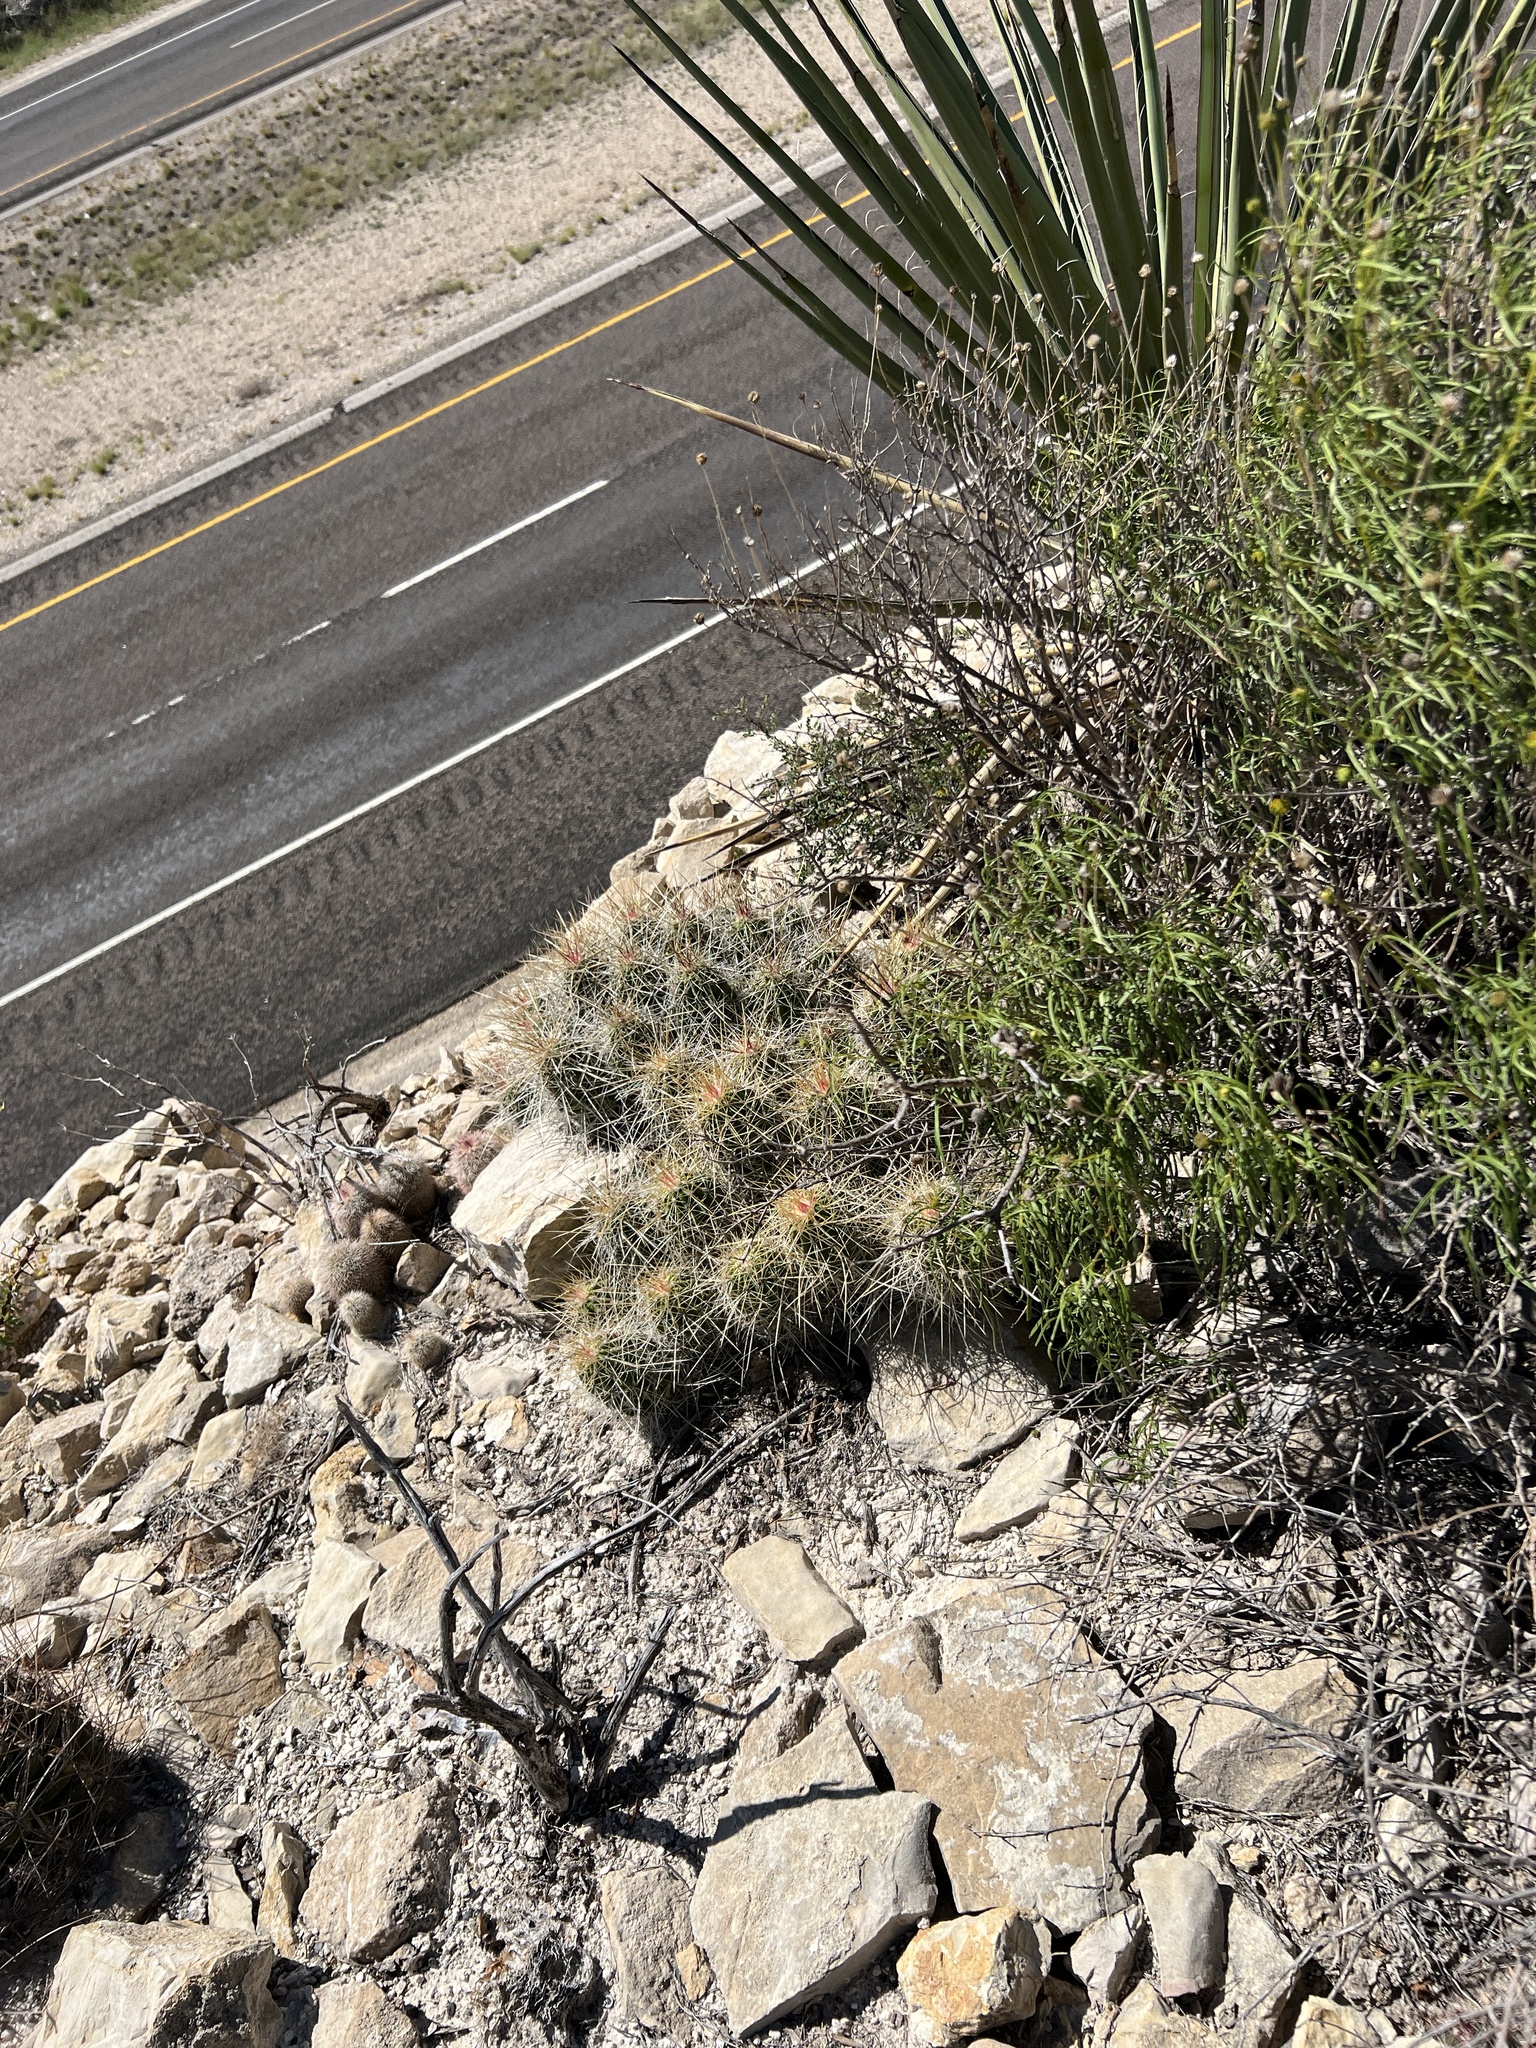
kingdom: Plantae
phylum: Tracheophyta
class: Magnoliopsida
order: Caryophyllales
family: Cactaceae
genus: Echinocereus
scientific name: Echinocereus stramineus
